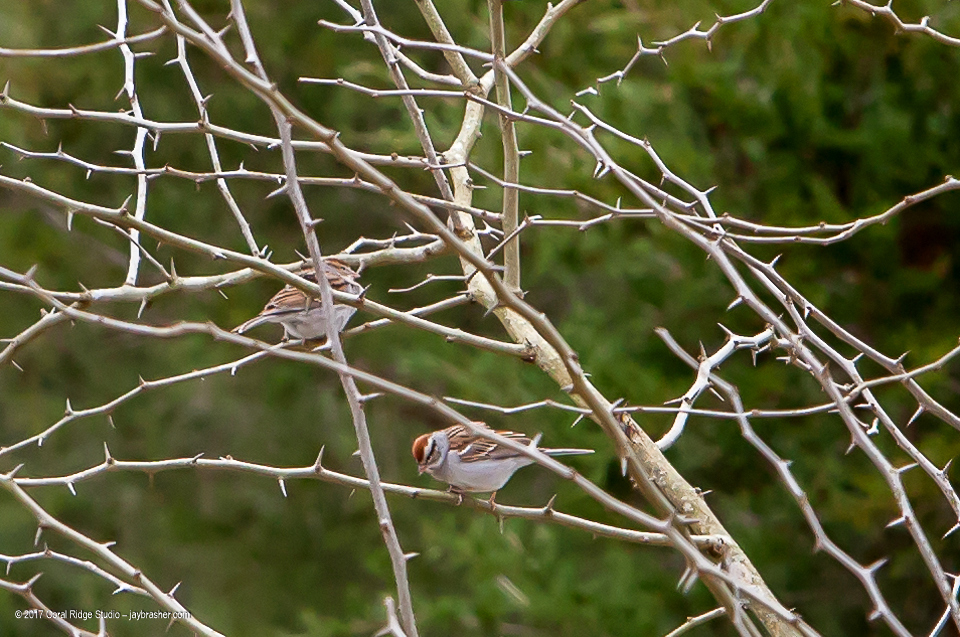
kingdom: Animalia
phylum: Chordata
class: Aves
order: Passeriformes
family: Passerellidae
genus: Spizella
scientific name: Spizella passerina
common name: Chipping sparrow
